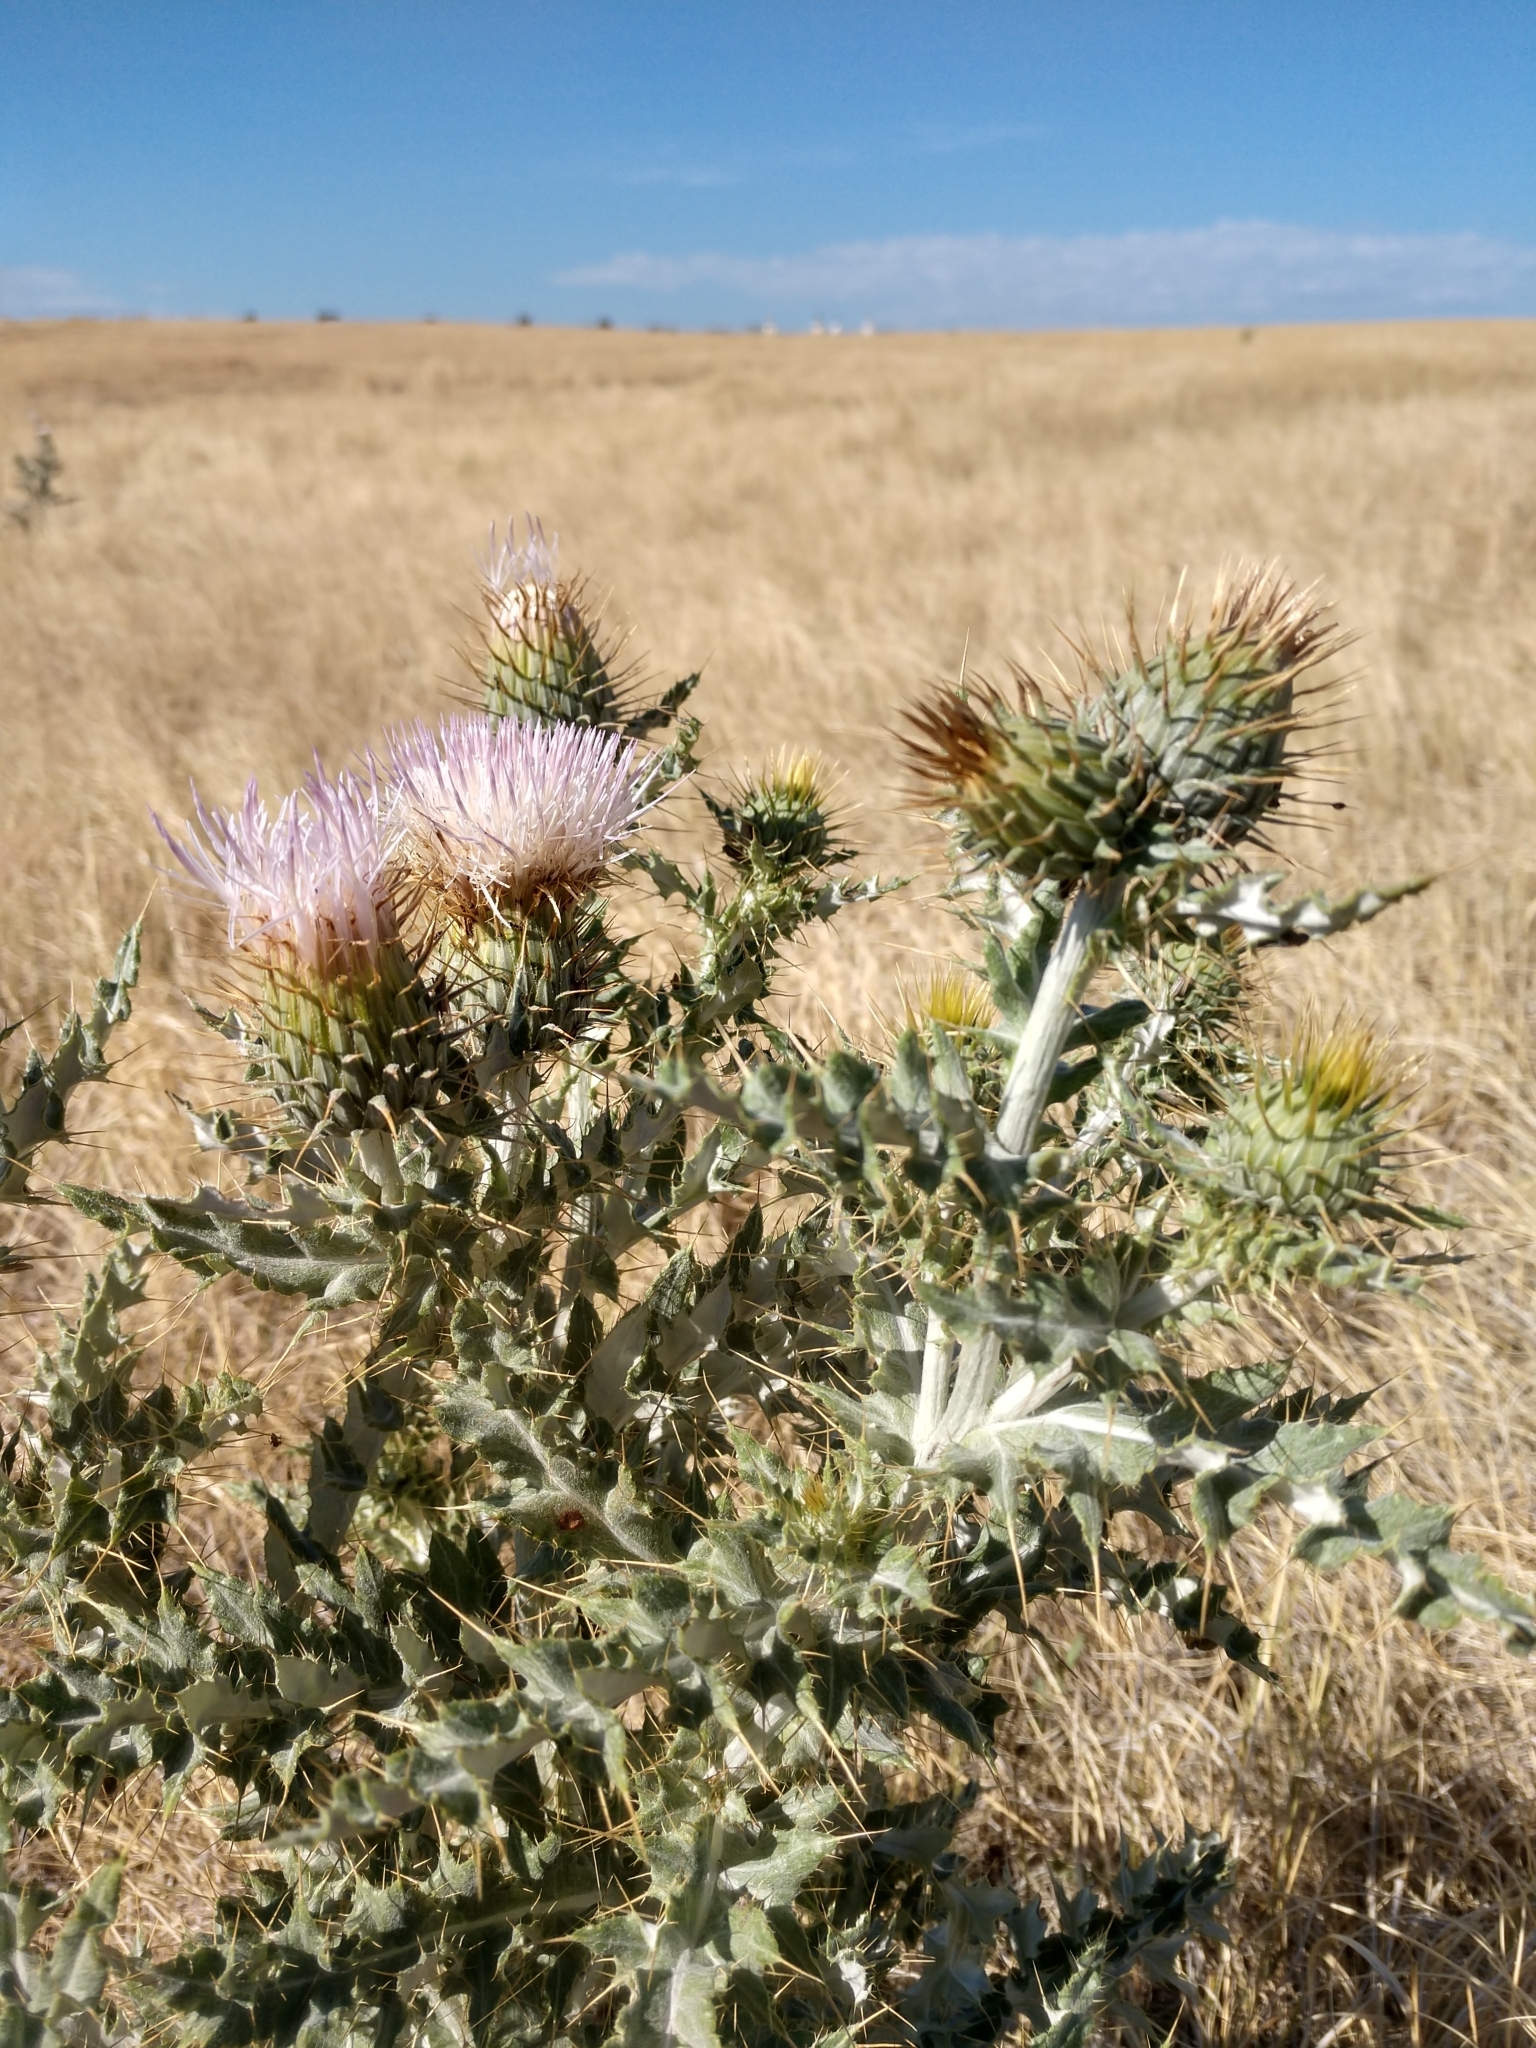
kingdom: Plantae
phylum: Tracheophyta
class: Magnoliopsida
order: Asterales
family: Asteraceae
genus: Cirsium
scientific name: Cirsium ochrocentrum
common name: Yellow-spine thistle
